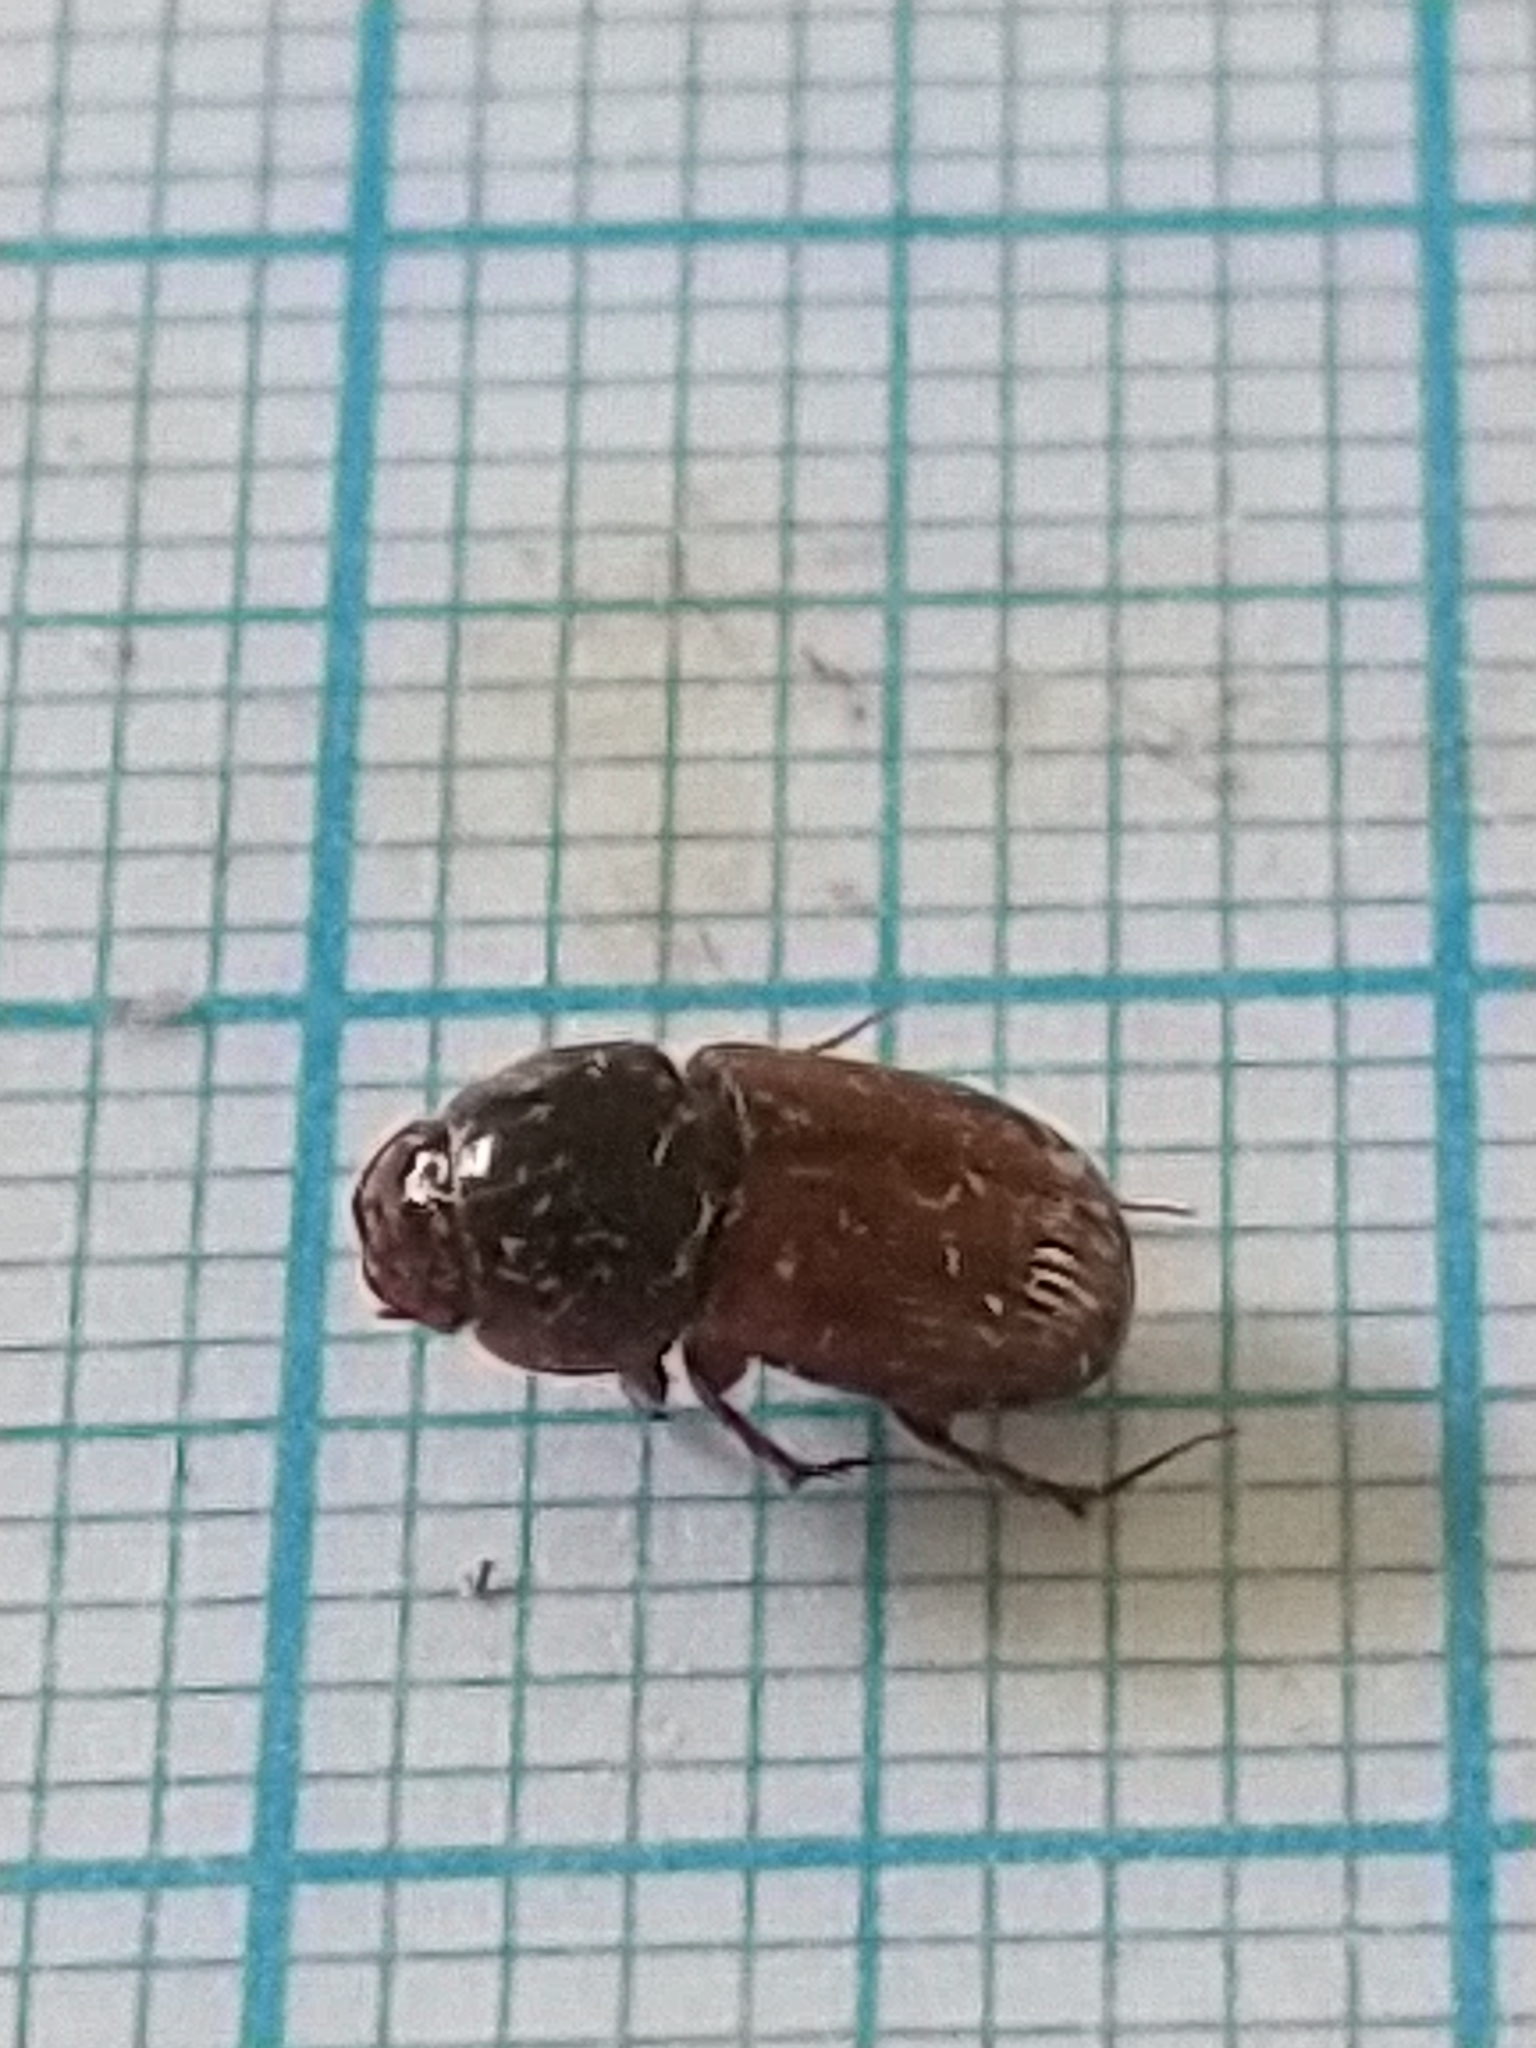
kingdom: Animalia
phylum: Arthropoda
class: Insecta
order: Coleoptera
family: Scarabaeidae
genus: Bodilopsis
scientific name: Bodilopsis rufus
